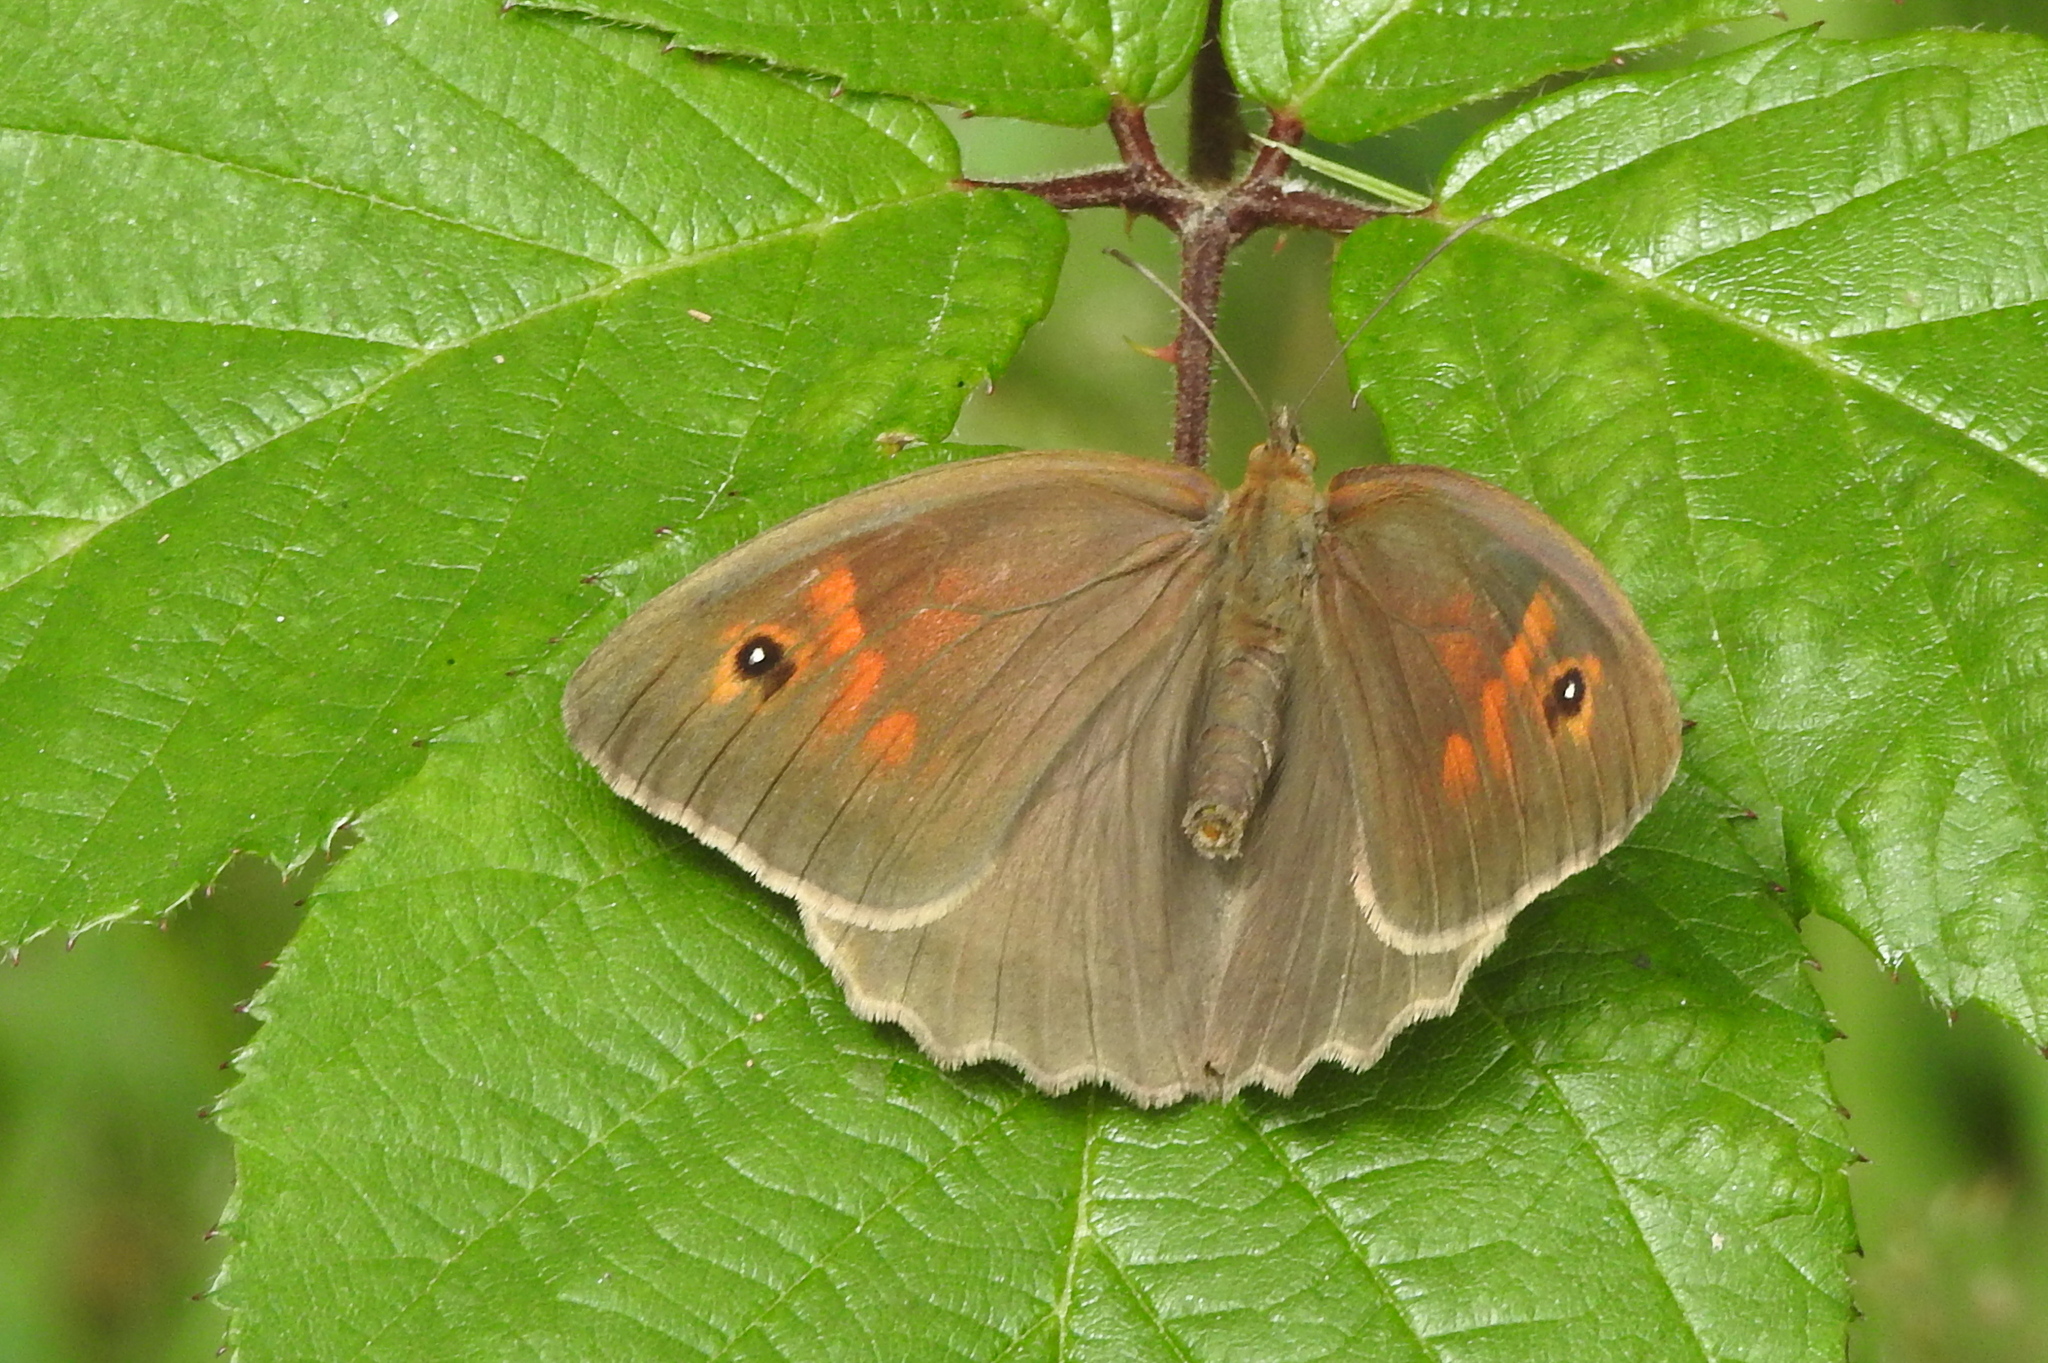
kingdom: Animalia
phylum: Arthropoda
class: Insecta
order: Lepidoptera
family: Nymphalidae
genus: Maniola
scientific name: Maniola jurtina
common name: Meadow brown
